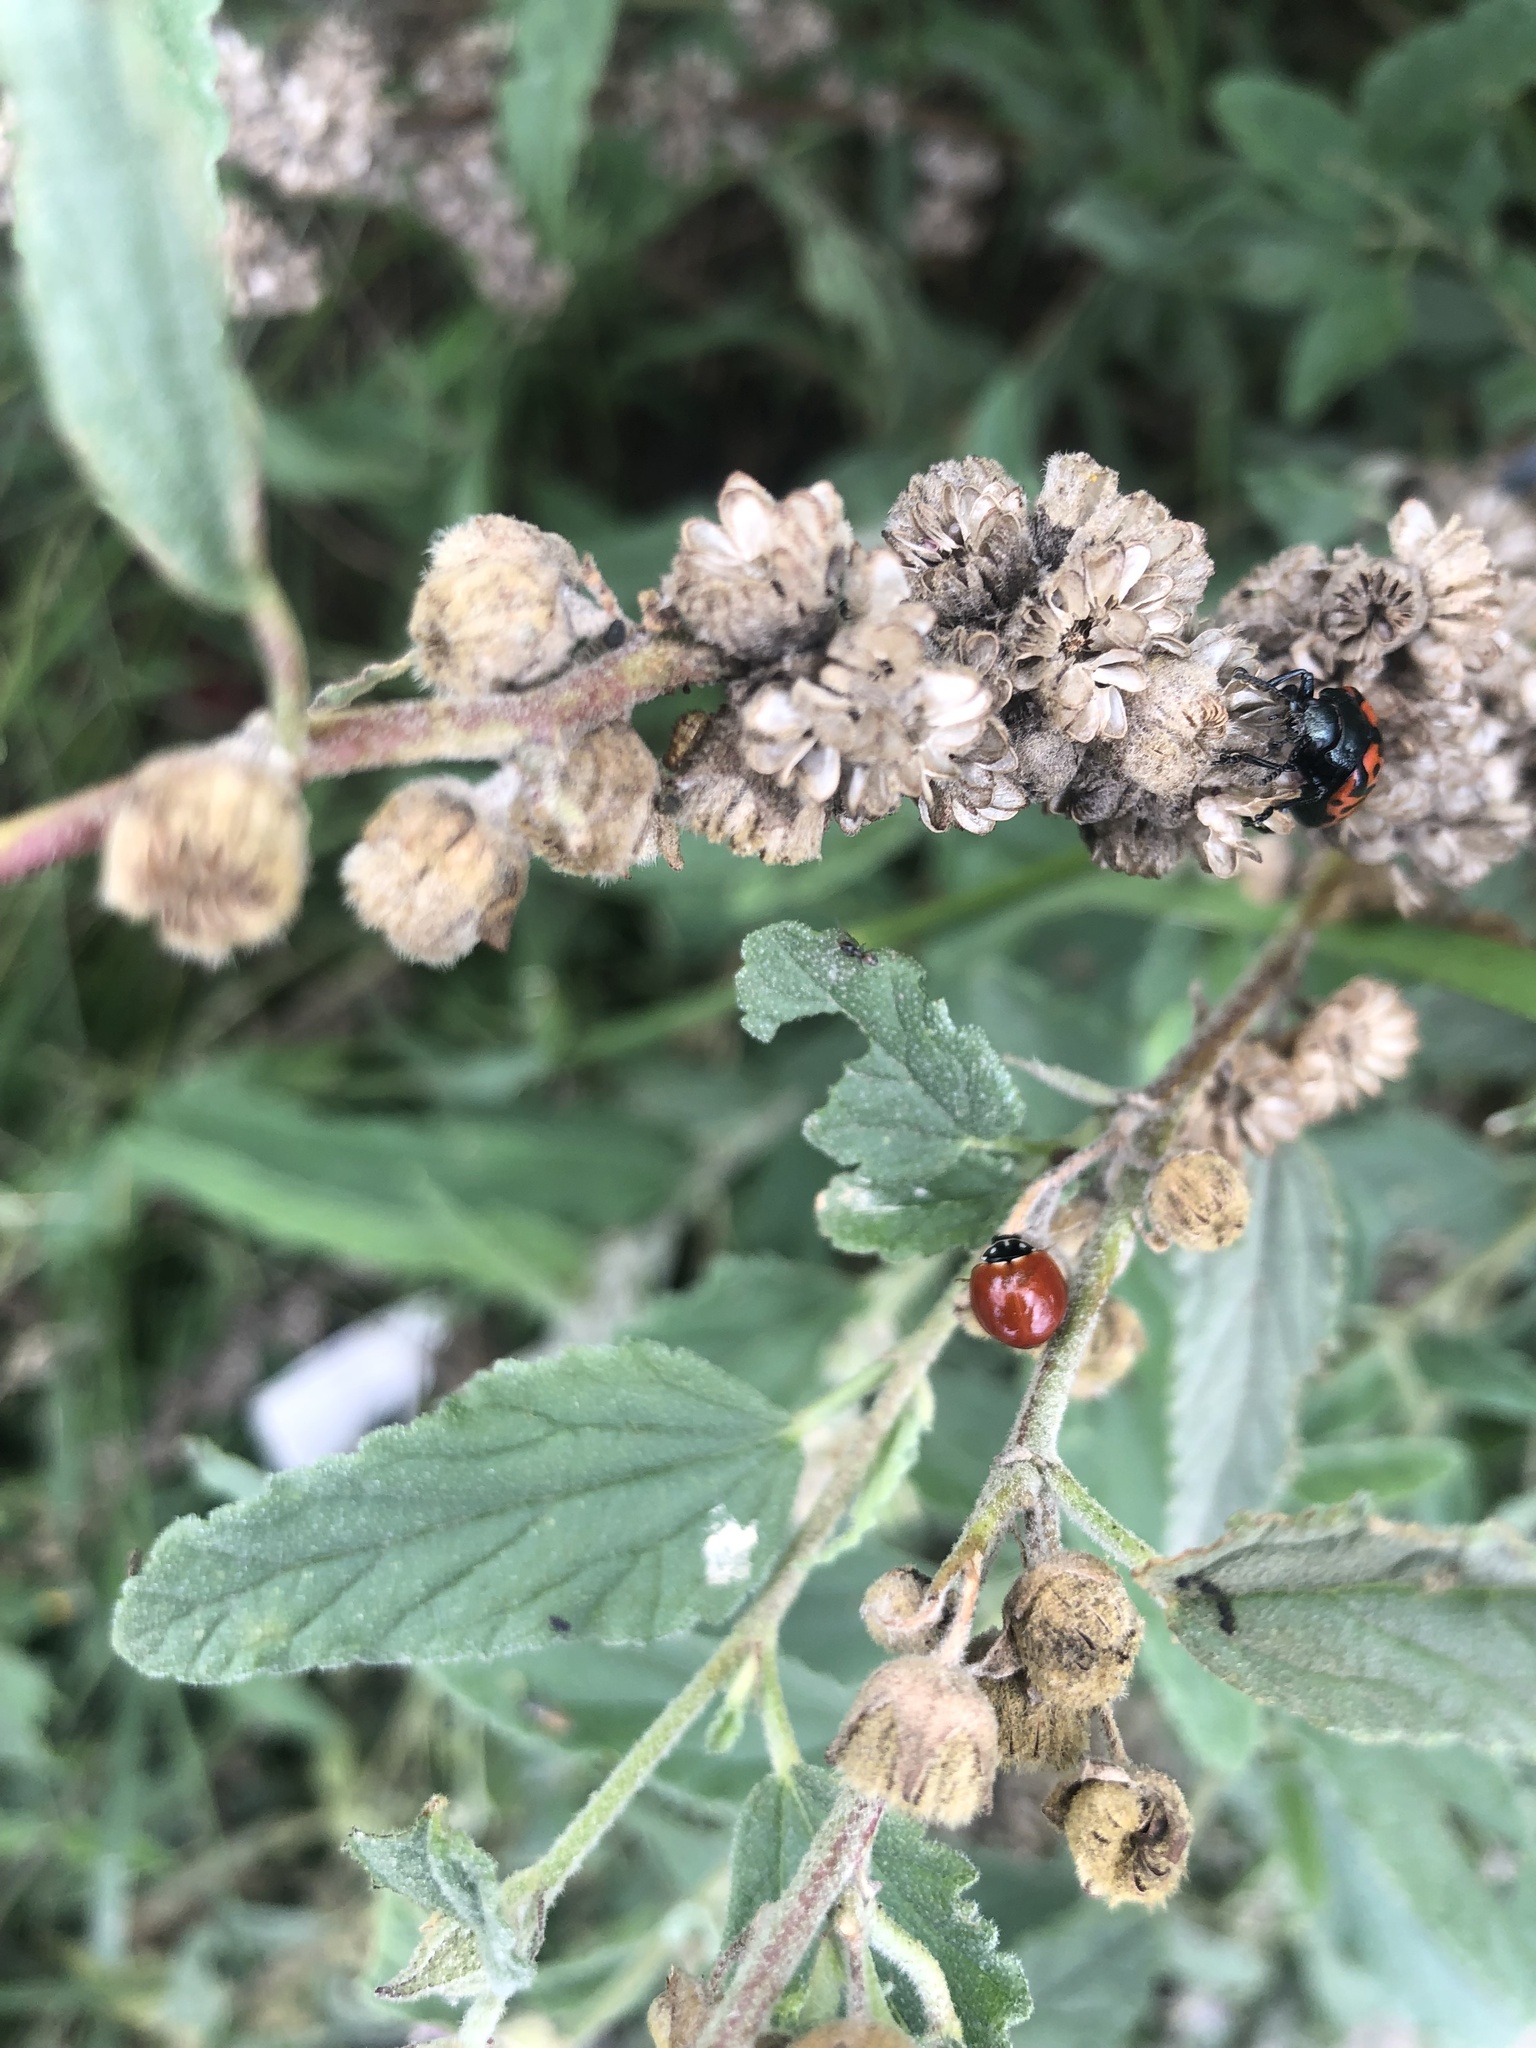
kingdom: Animalia
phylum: Arthropoda
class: Insecta
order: Coleoptera
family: Coccinellidae
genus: Cycloneda
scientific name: Cycloneda sanguinea
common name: Ladybird beetle
